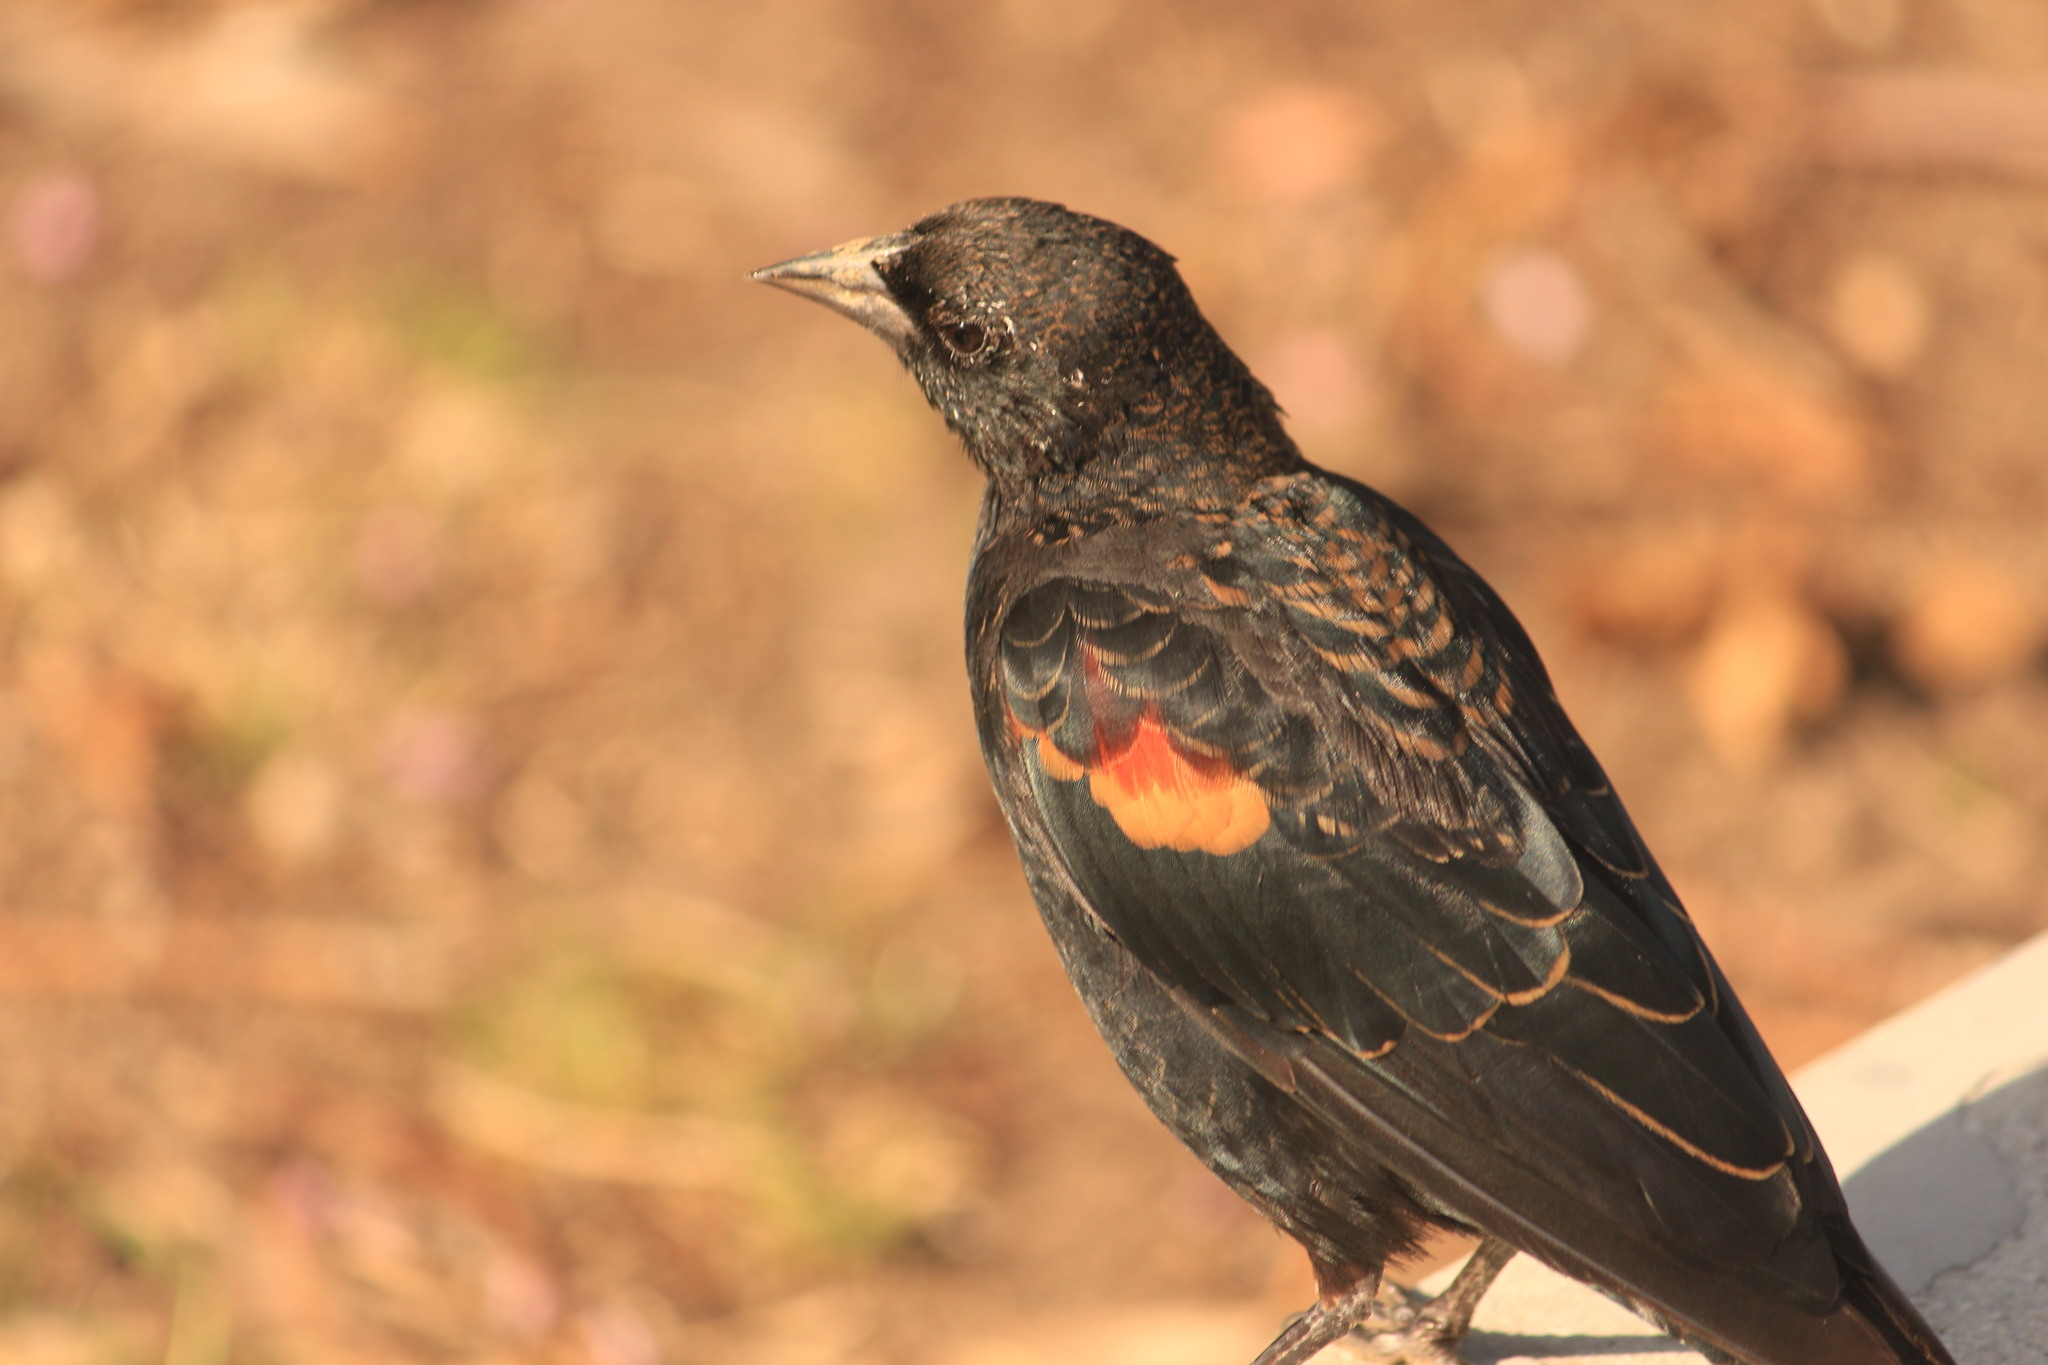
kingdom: Animalia
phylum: Chordata
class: Aves
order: Passeriformes
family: Icteridae
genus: Agelaius
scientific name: Agelaius phoeniceus
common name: Red-winged blackbird
